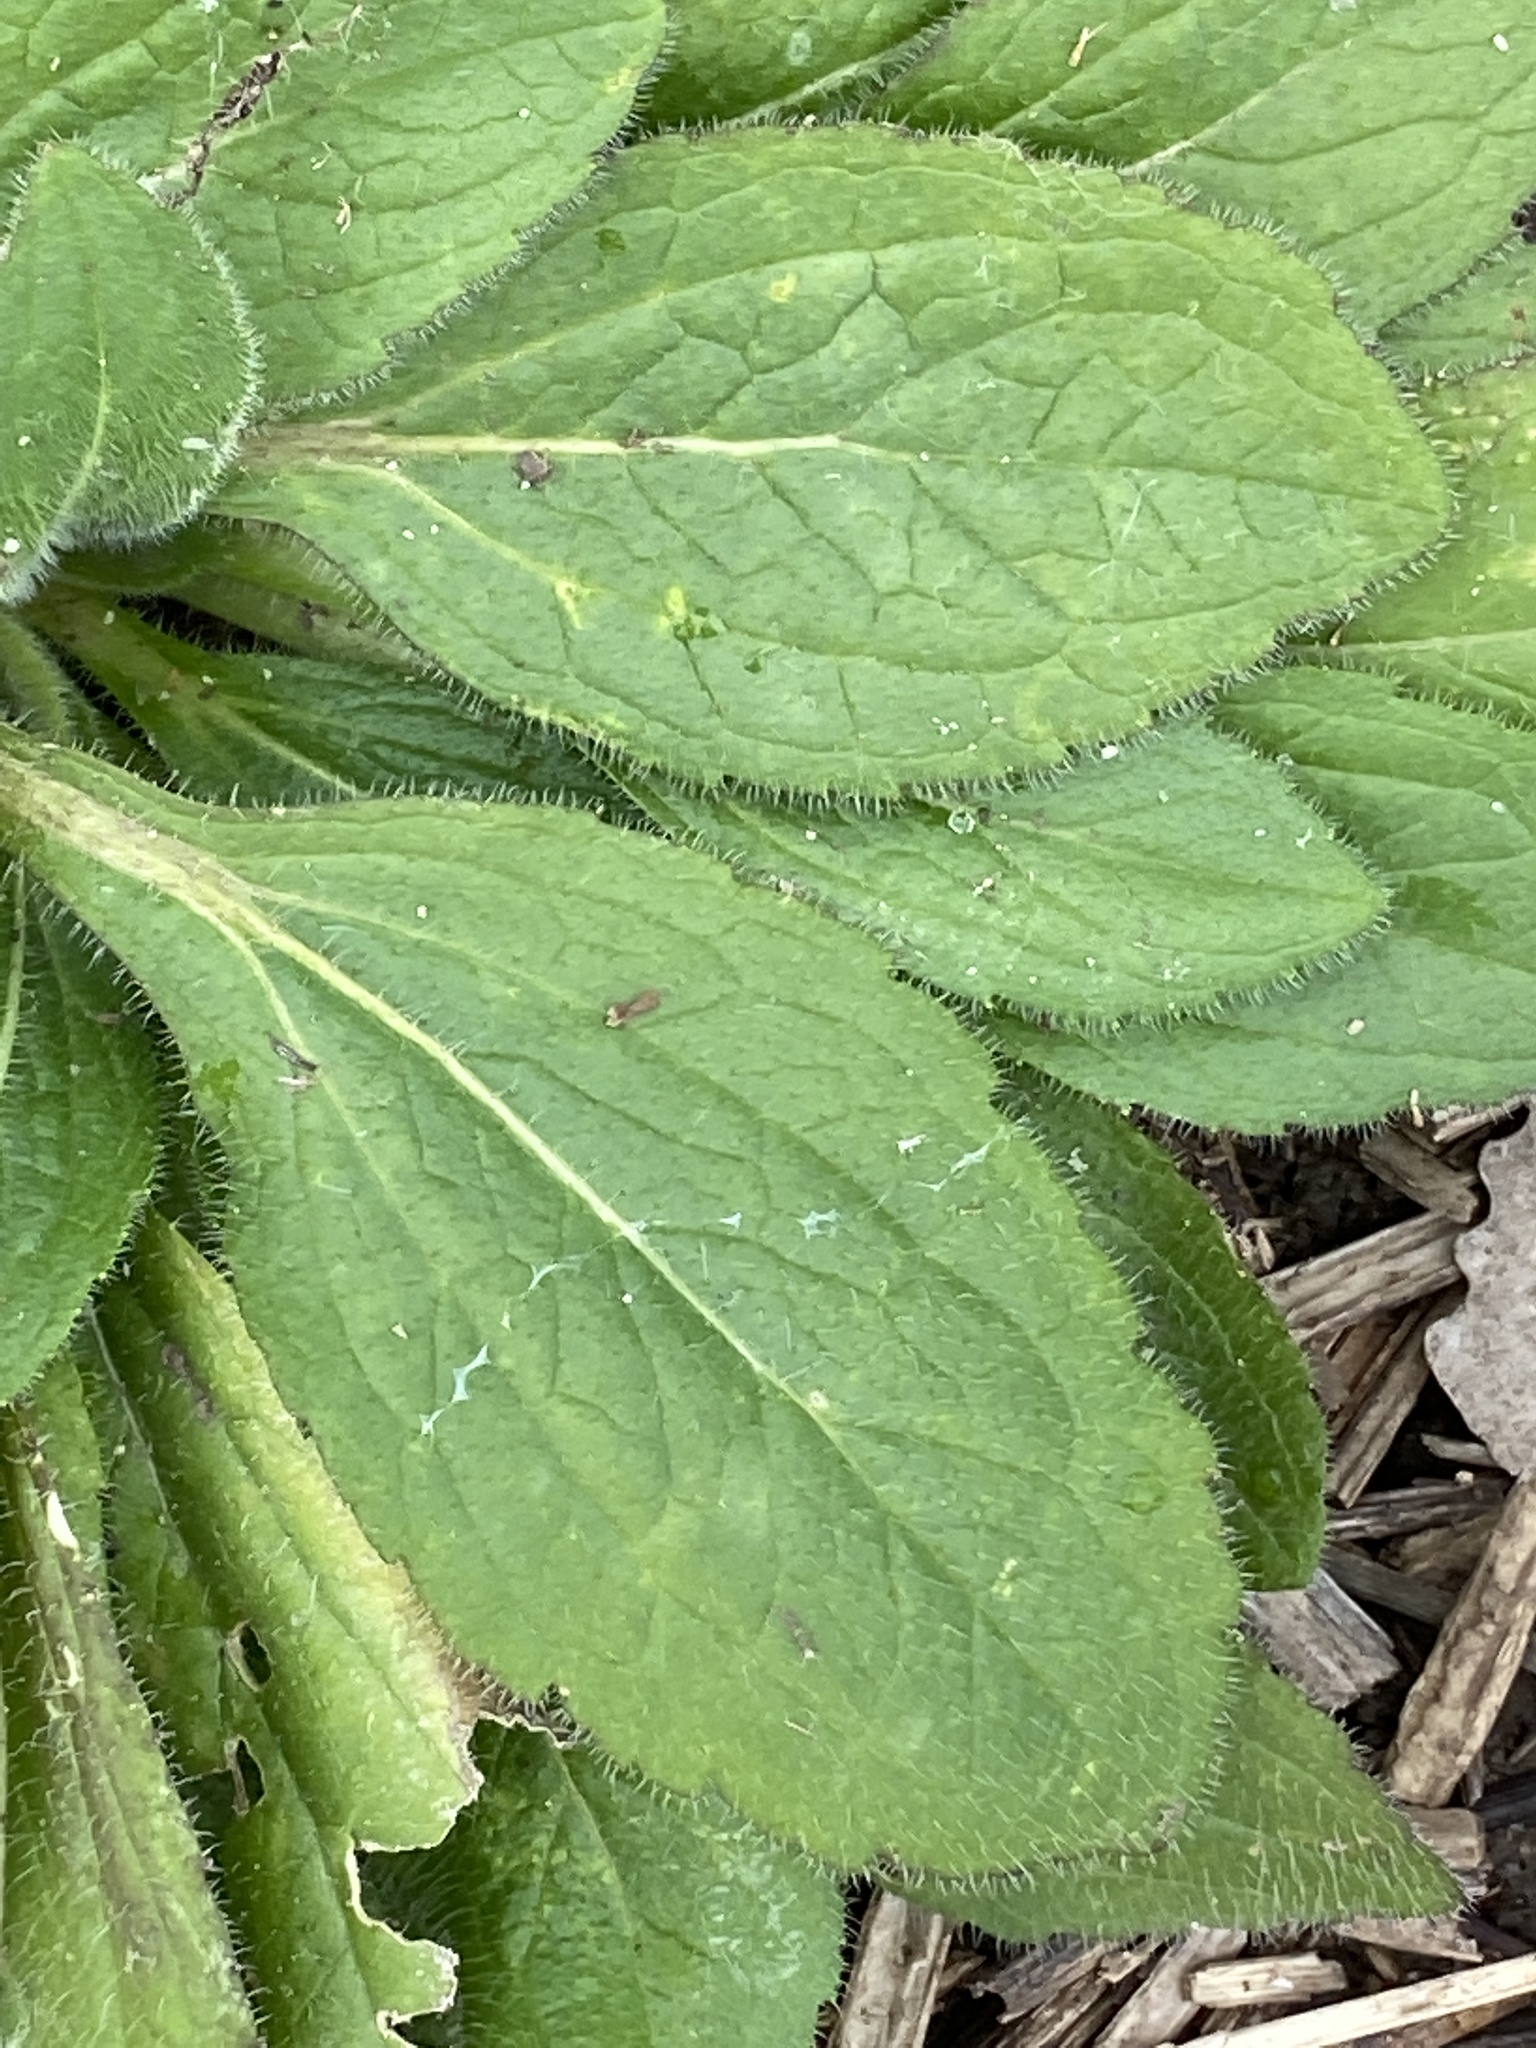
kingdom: Plantae
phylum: Tracheophyta
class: Magnoliopsida
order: Asterales
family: Asteraceae
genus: Rudbeckia
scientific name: Rudbeckia hirta
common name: Black-eyed-susan
